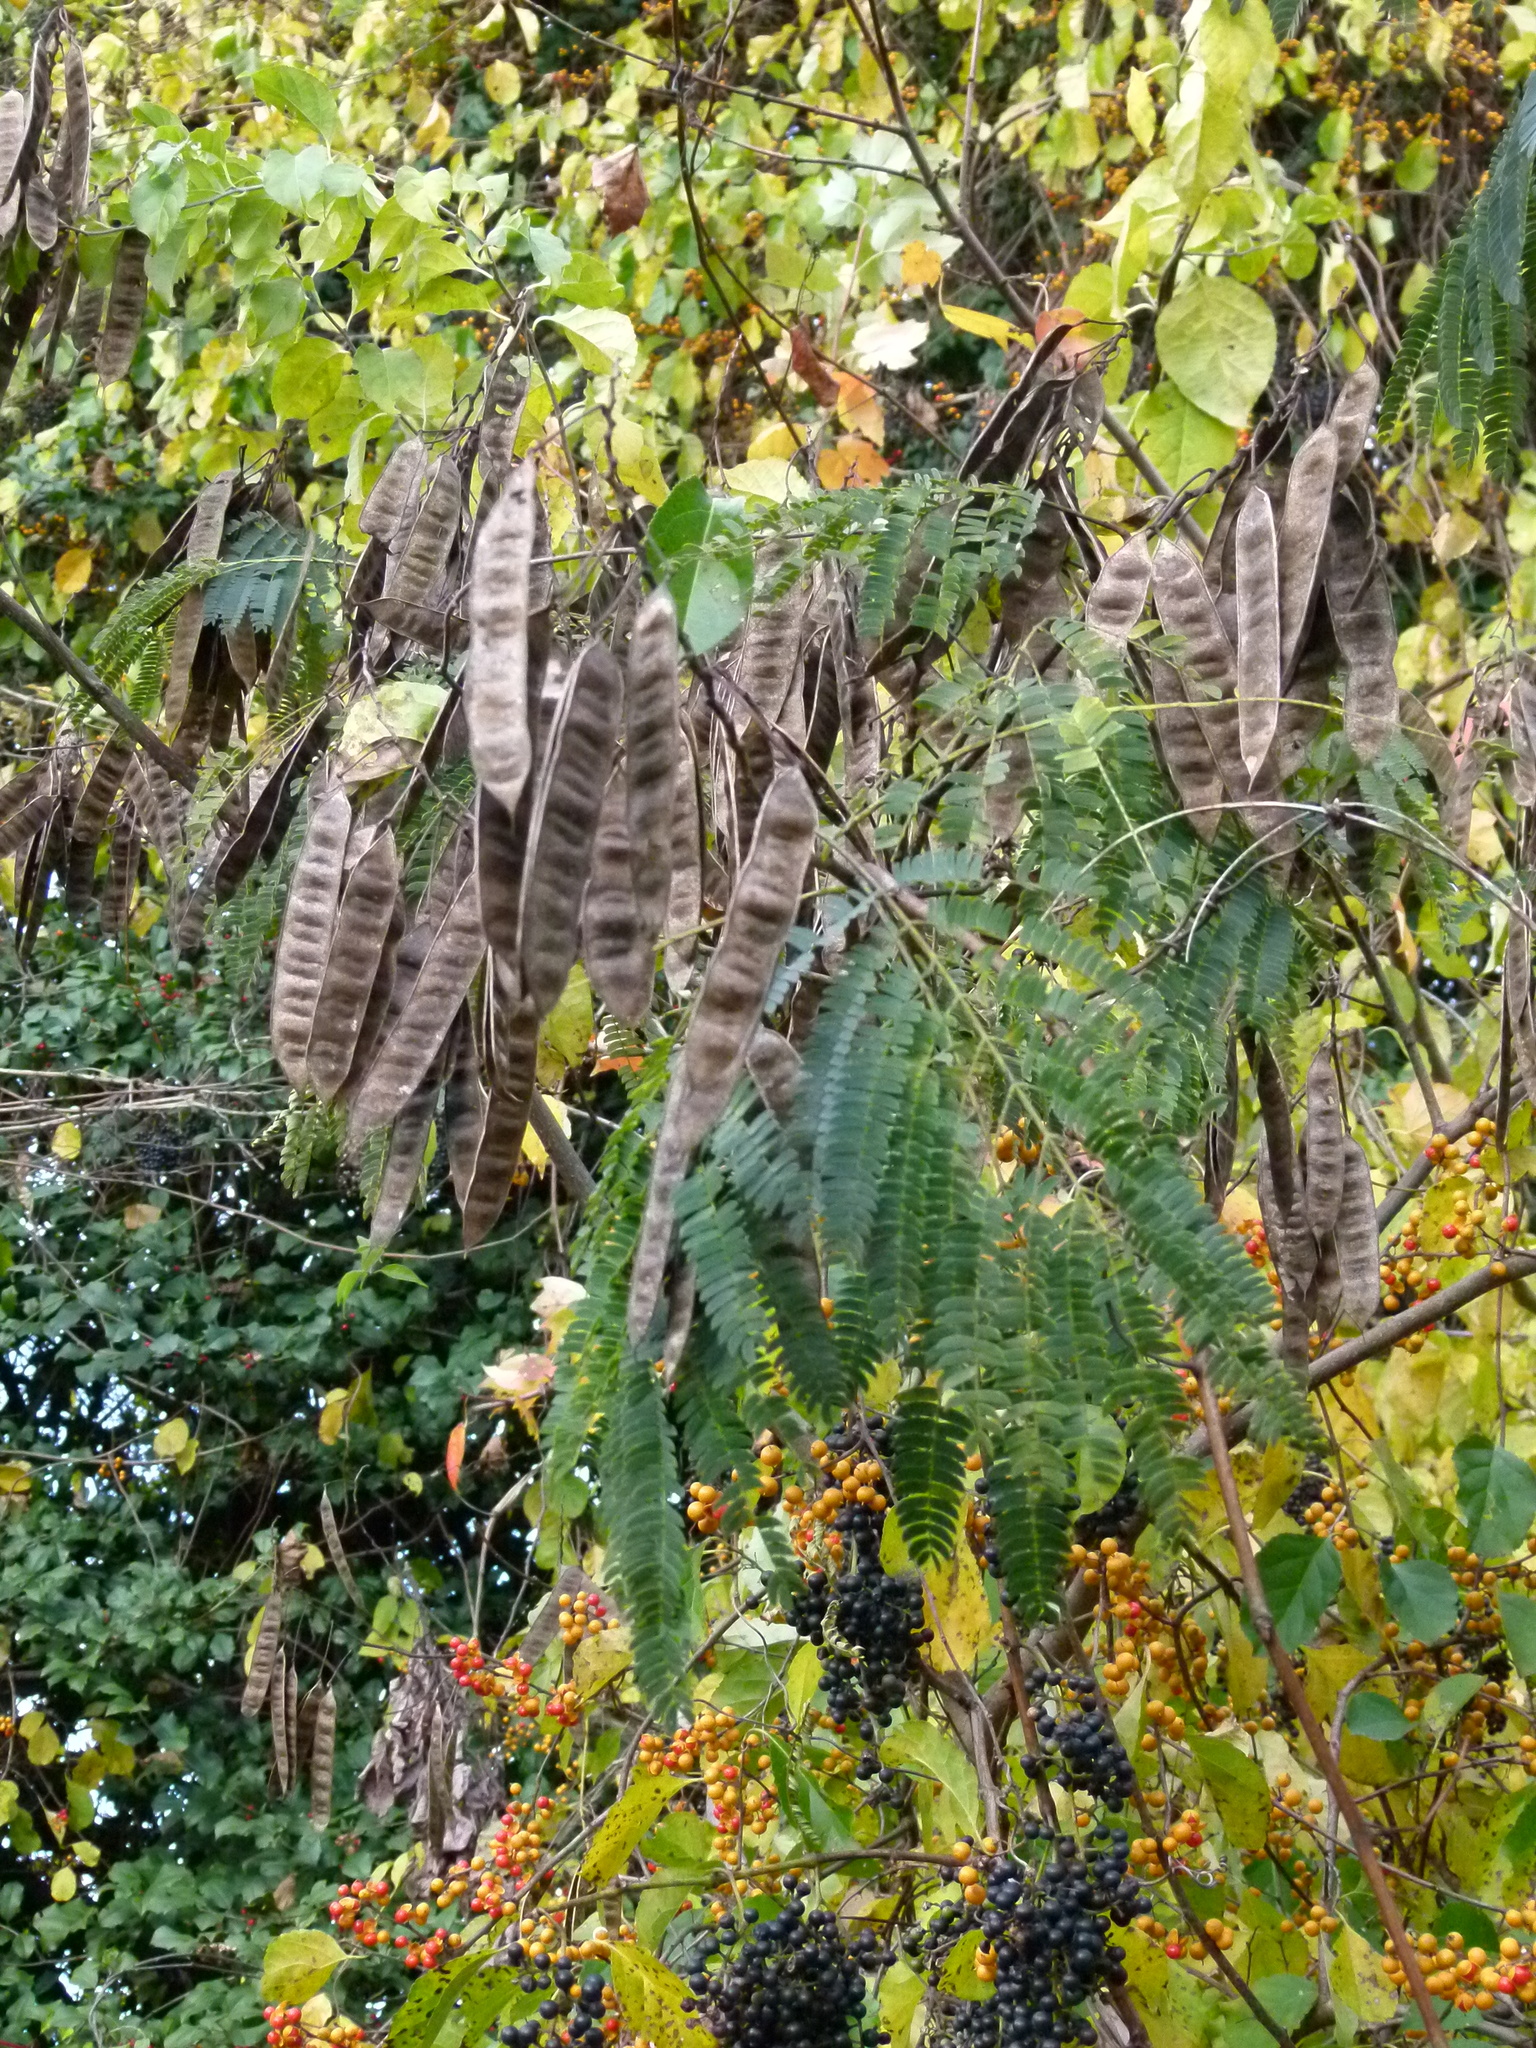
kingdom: Plantae
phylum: Tracheophyta
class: Magnoliopsida
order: Fabales
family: Fabaceae
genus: Albizia
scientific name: Albizia julibrissin
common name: Silktree
